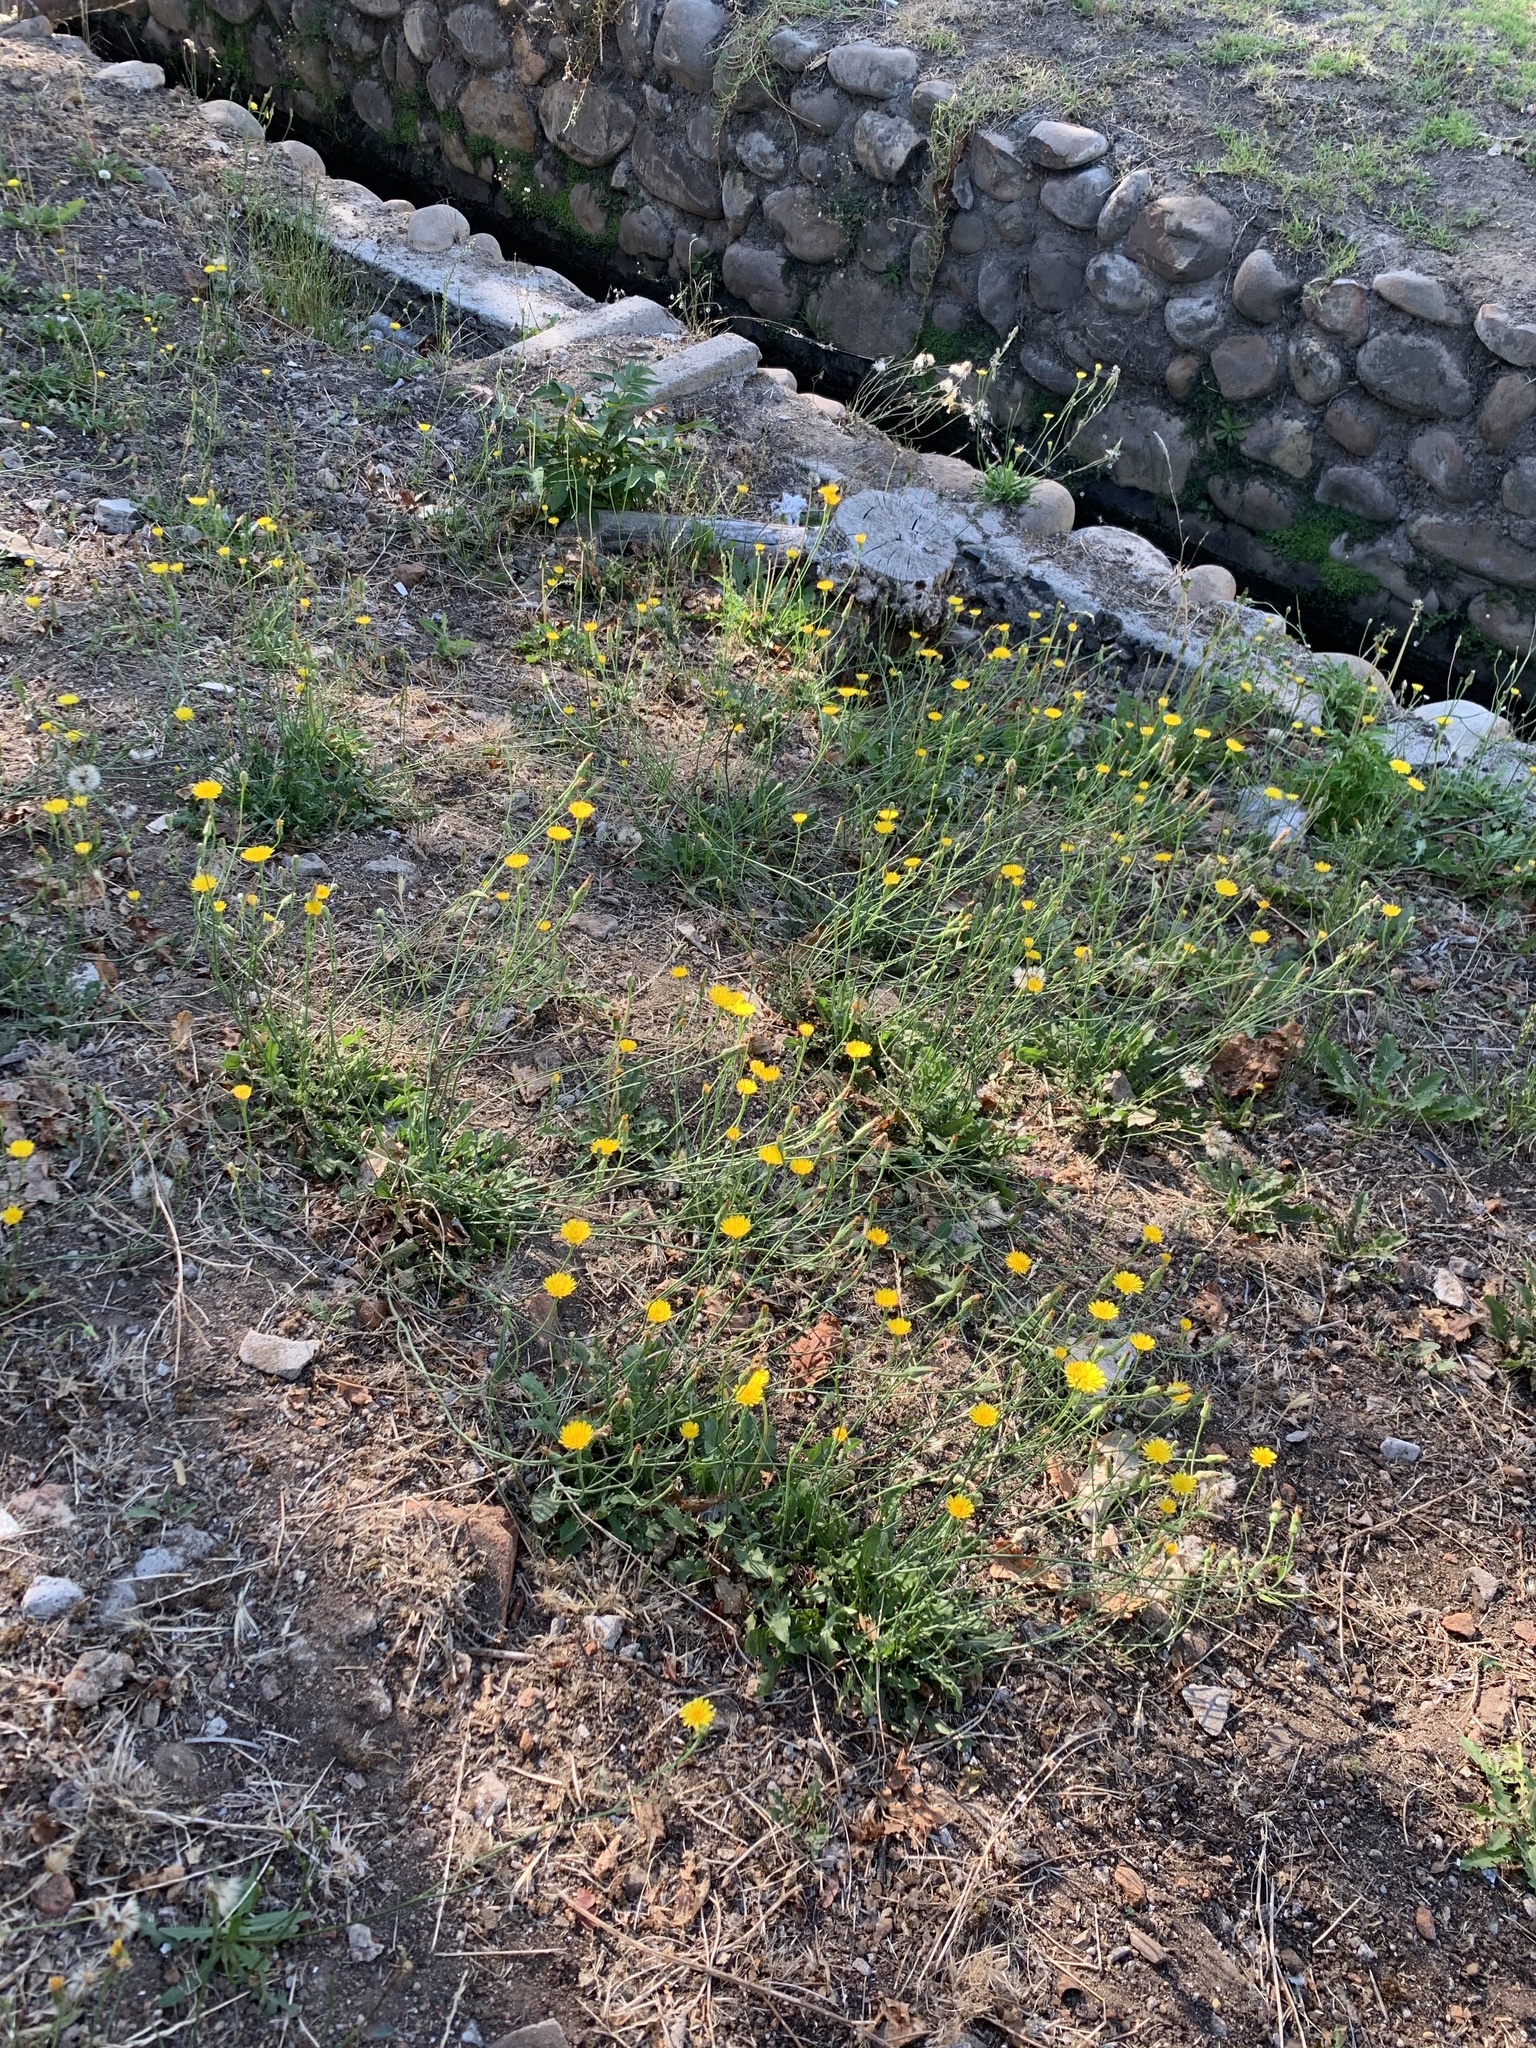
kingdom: Plantae
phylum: Tracheophyta
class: Magnoliopsida
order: Asterales
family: Asteraceae
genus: Hypochaeris
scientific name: Hypochaeris radicata
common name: Flatweed
